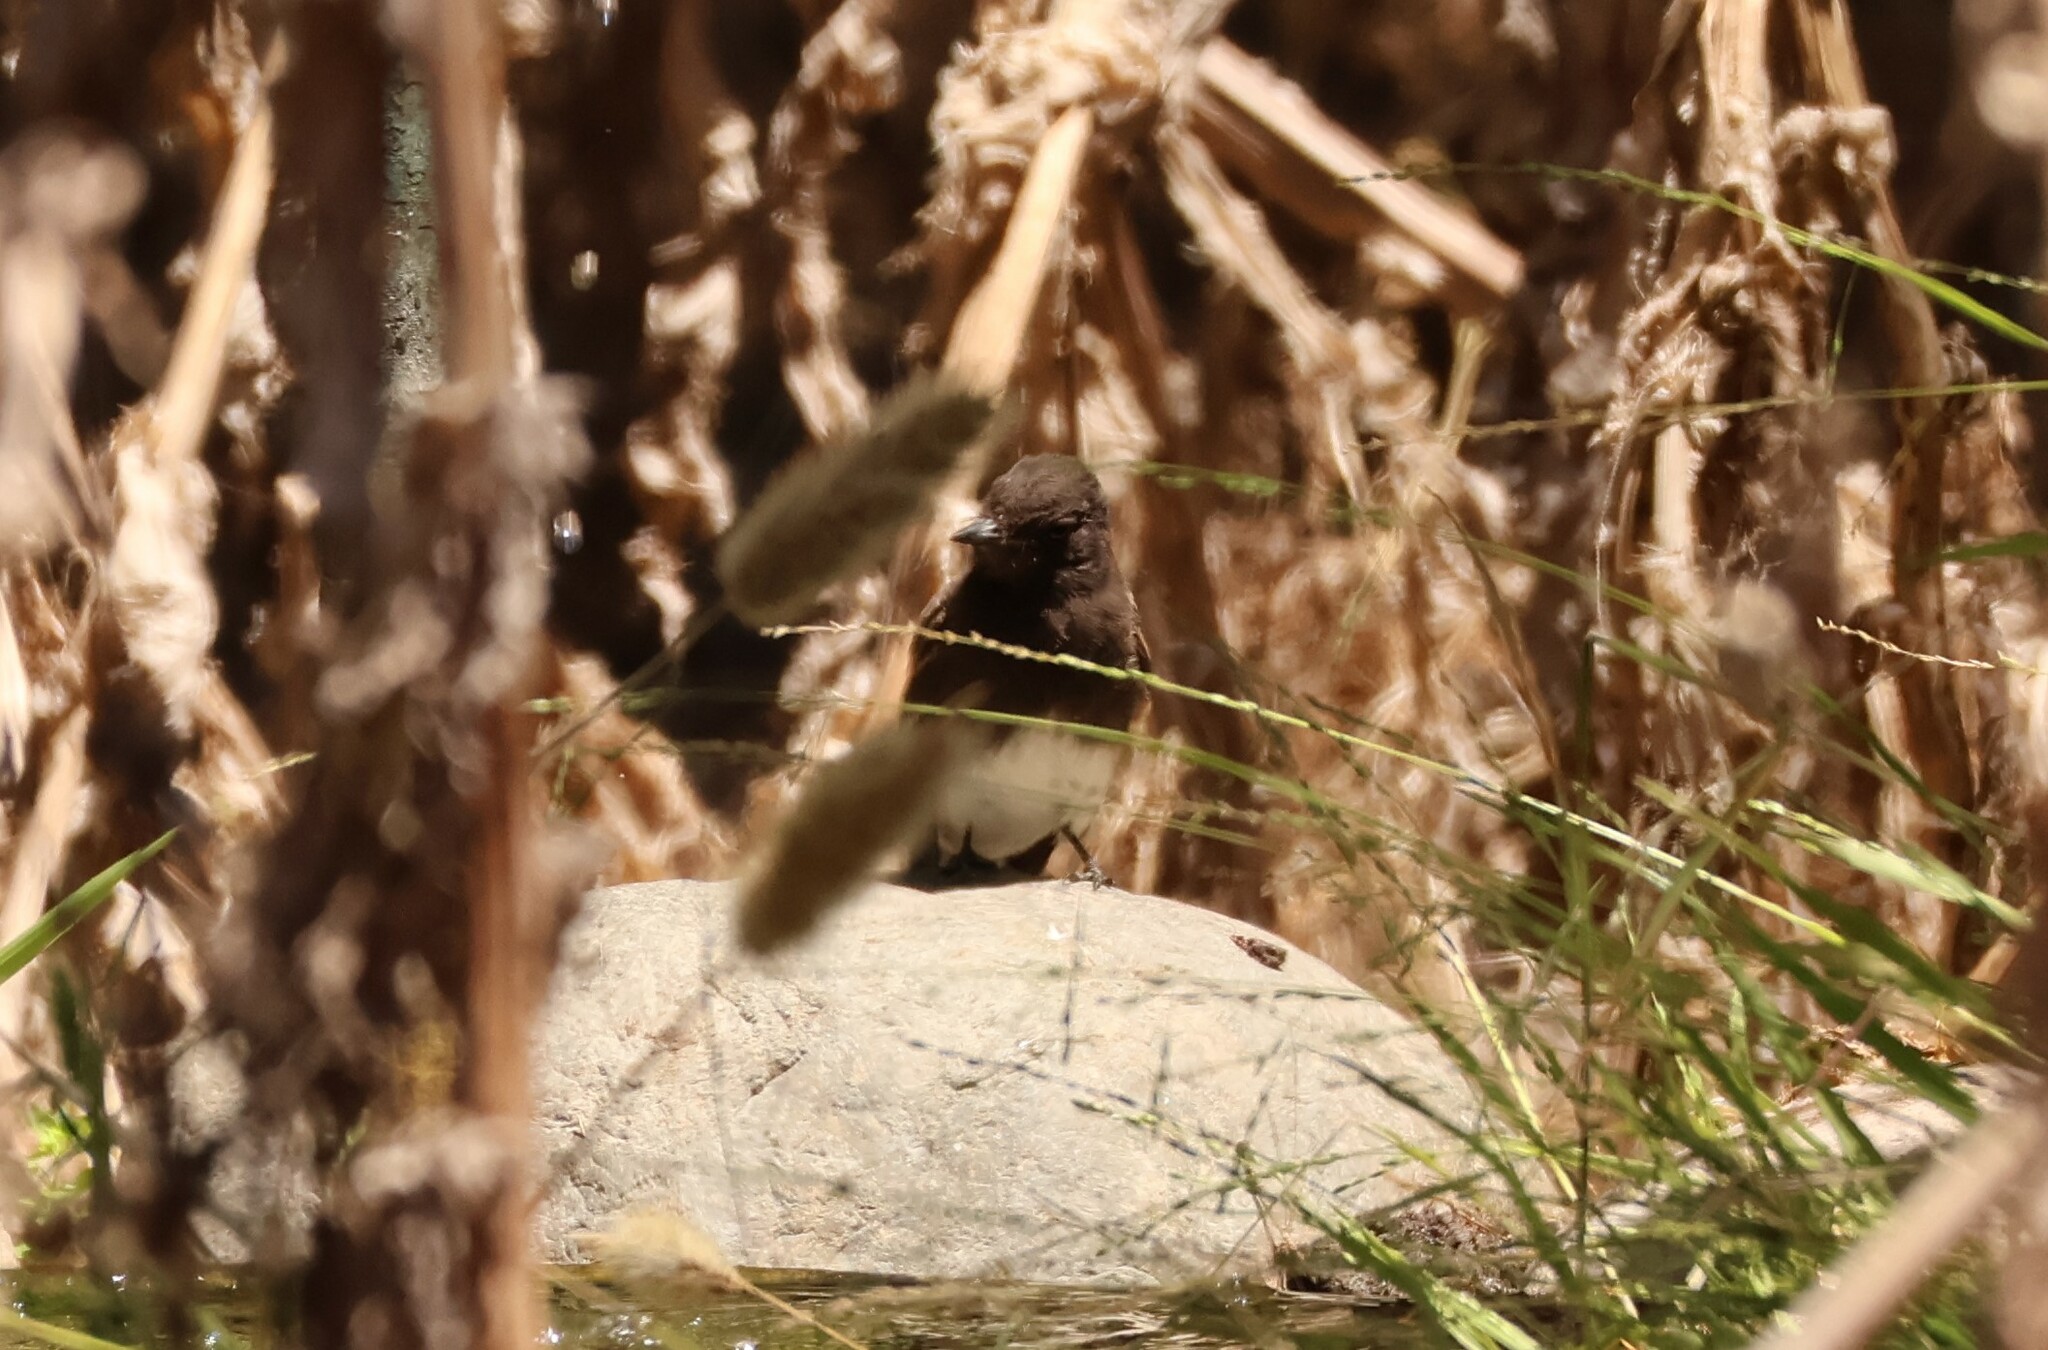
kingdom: Animalia
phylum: Chordata
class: Aves
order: Passeriformes
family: Tyrannidae
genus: Sayornis
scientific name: Sayornis nigricans
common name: Black phoebe
